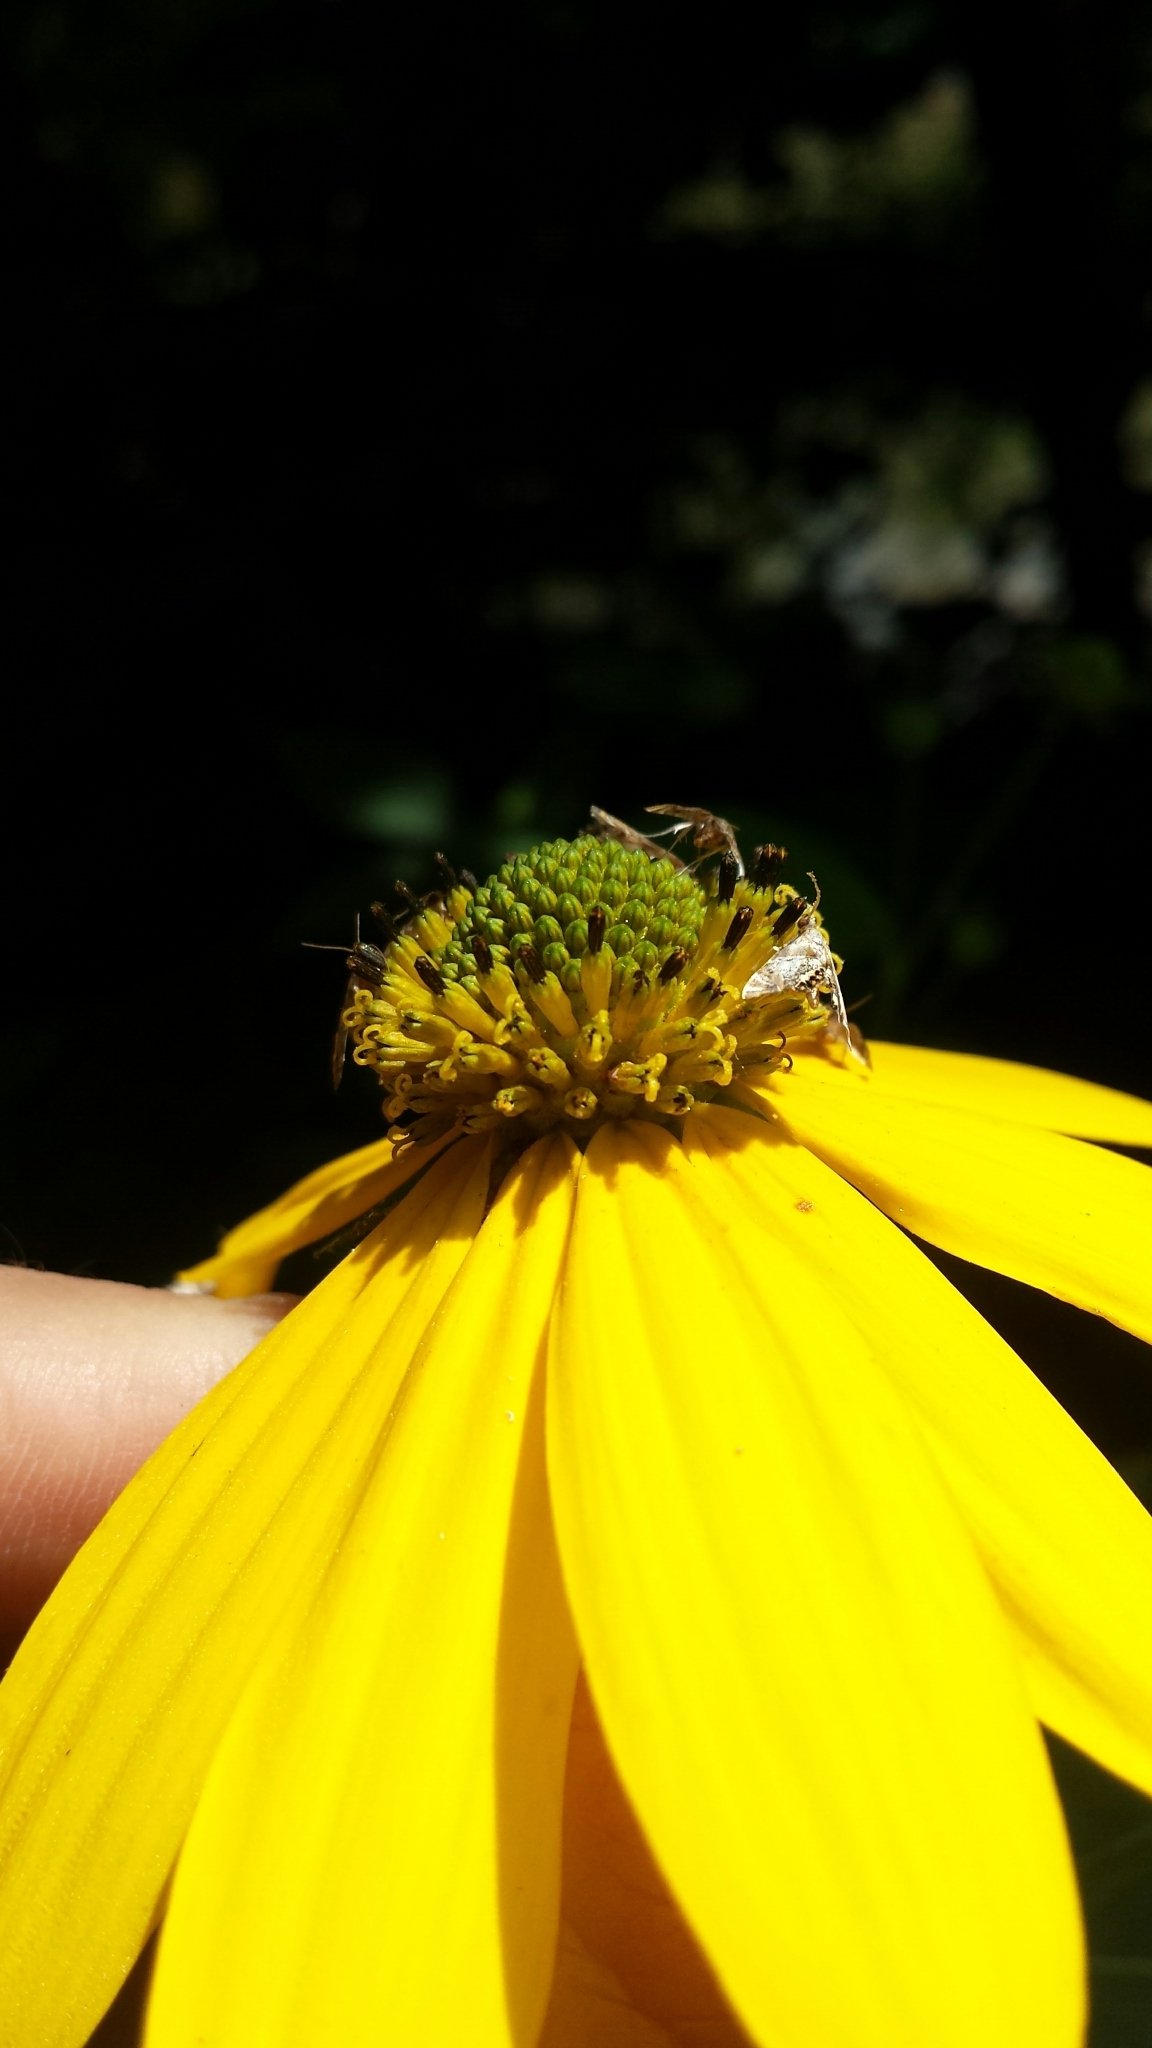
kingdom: Plantae
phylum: Tracheophyta
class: Magnoliopsida
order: Asterales
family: Asteraceae
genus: Rudbeckia
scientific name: Rudbeckia laciniata
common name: Coneflower
